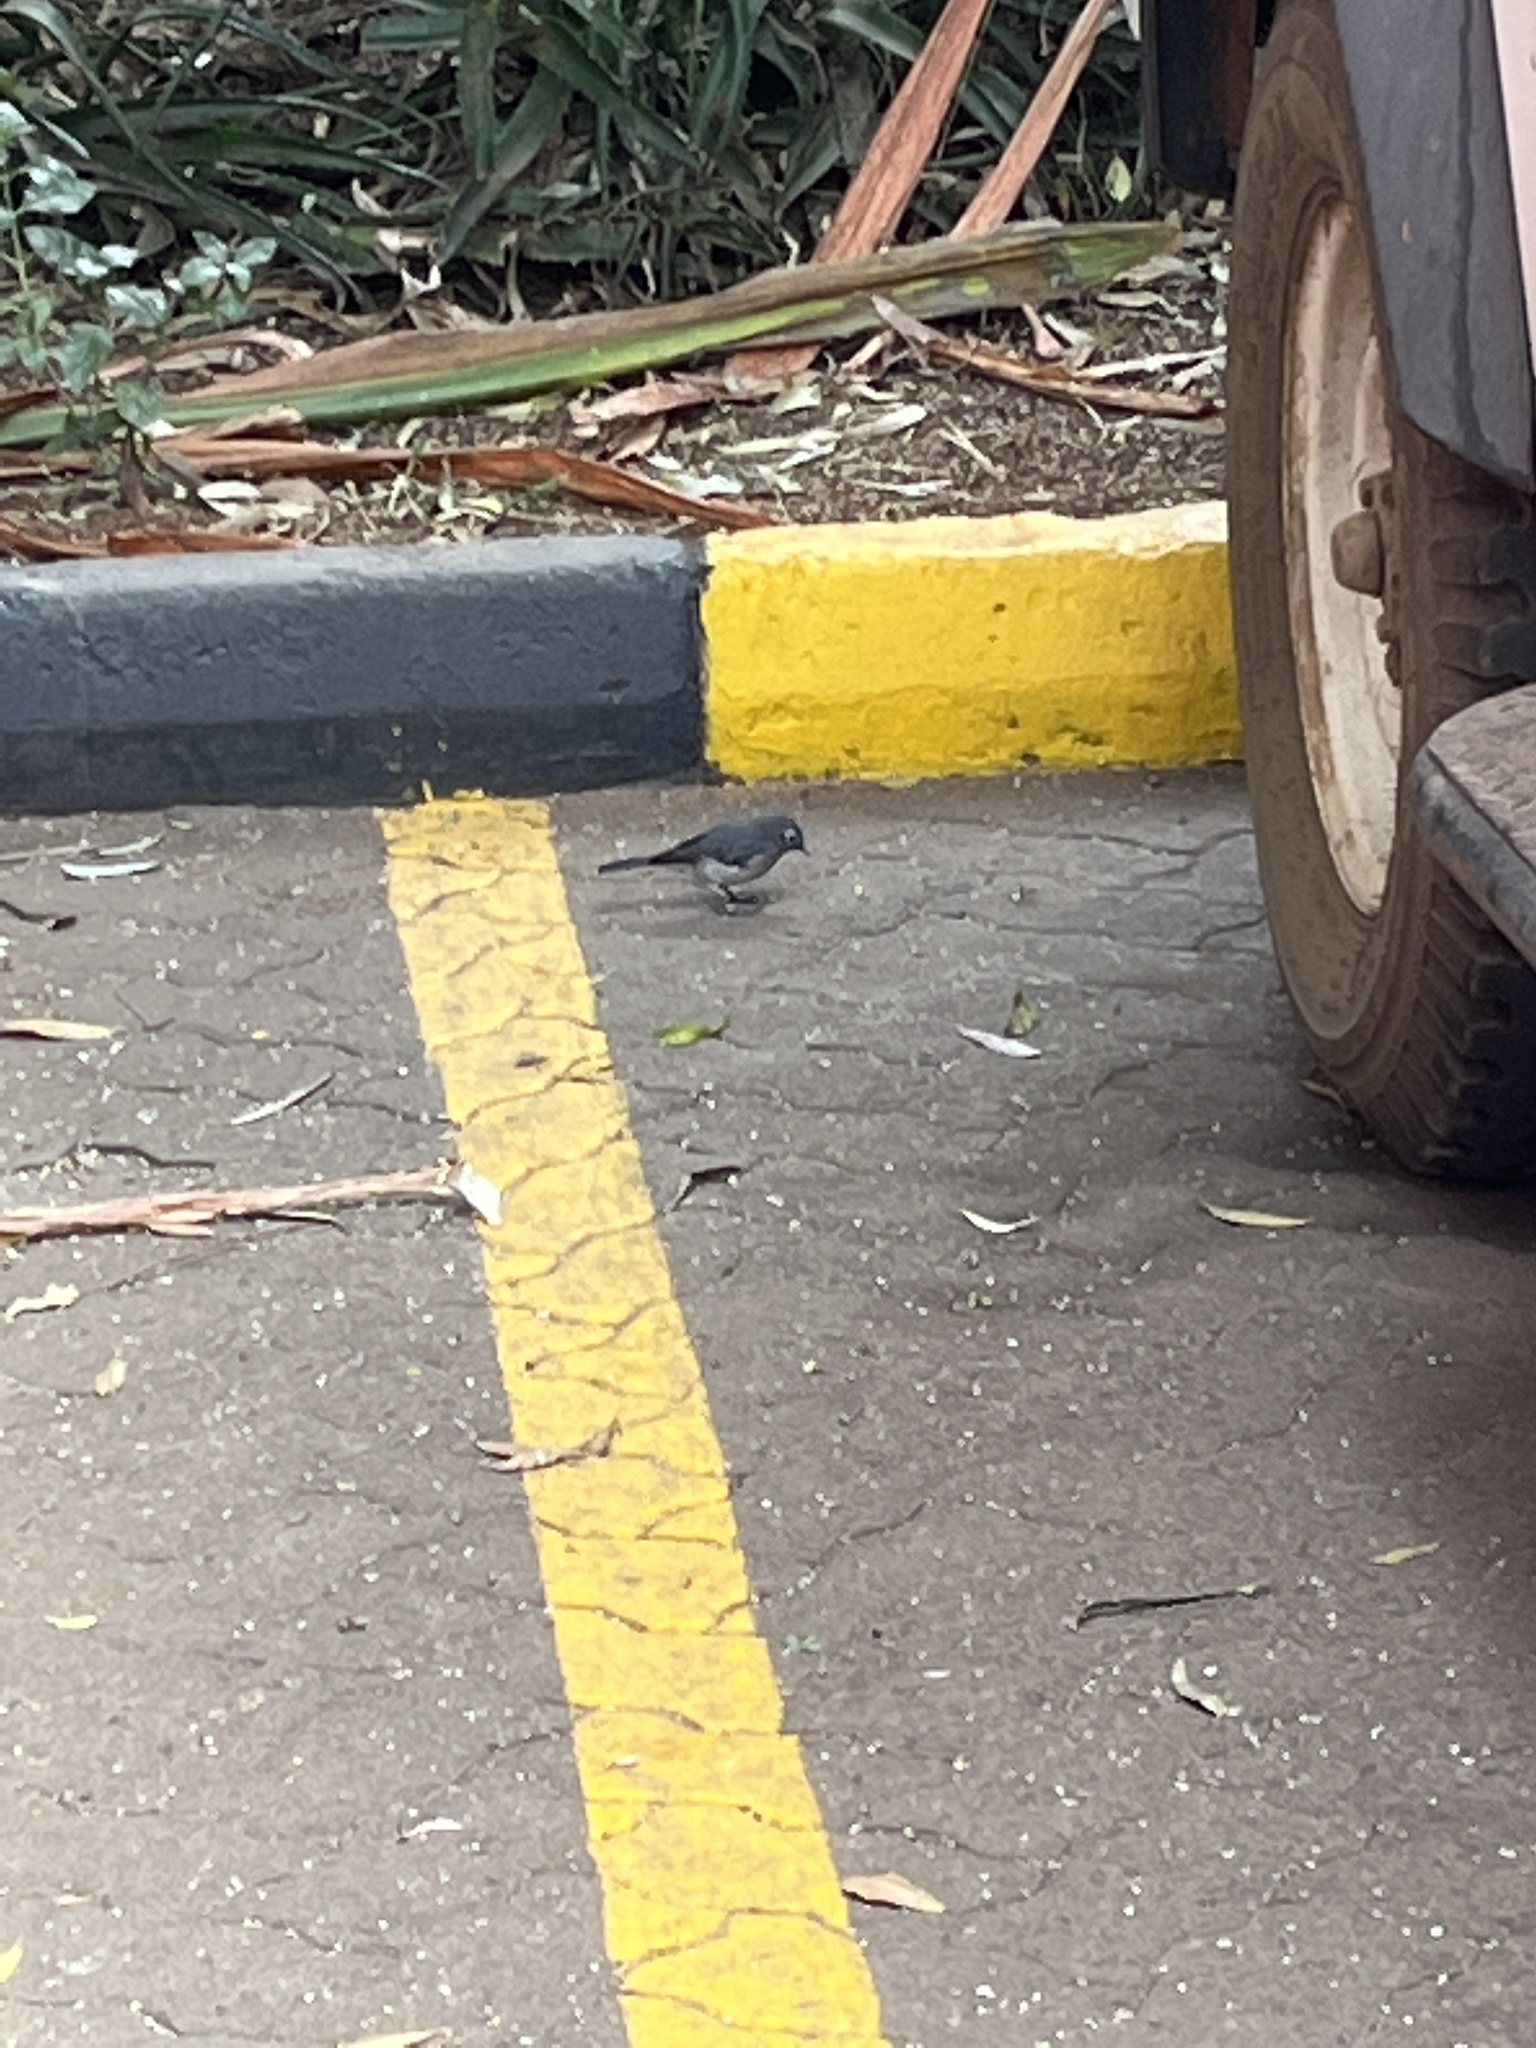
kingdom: Animalia
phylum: Chordata
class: Aves
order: Passeriformes
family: Muscicapidae
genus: Dioptrornis
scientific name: Dioptrornis fischeri
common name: White-eyed slaty flycatcher
